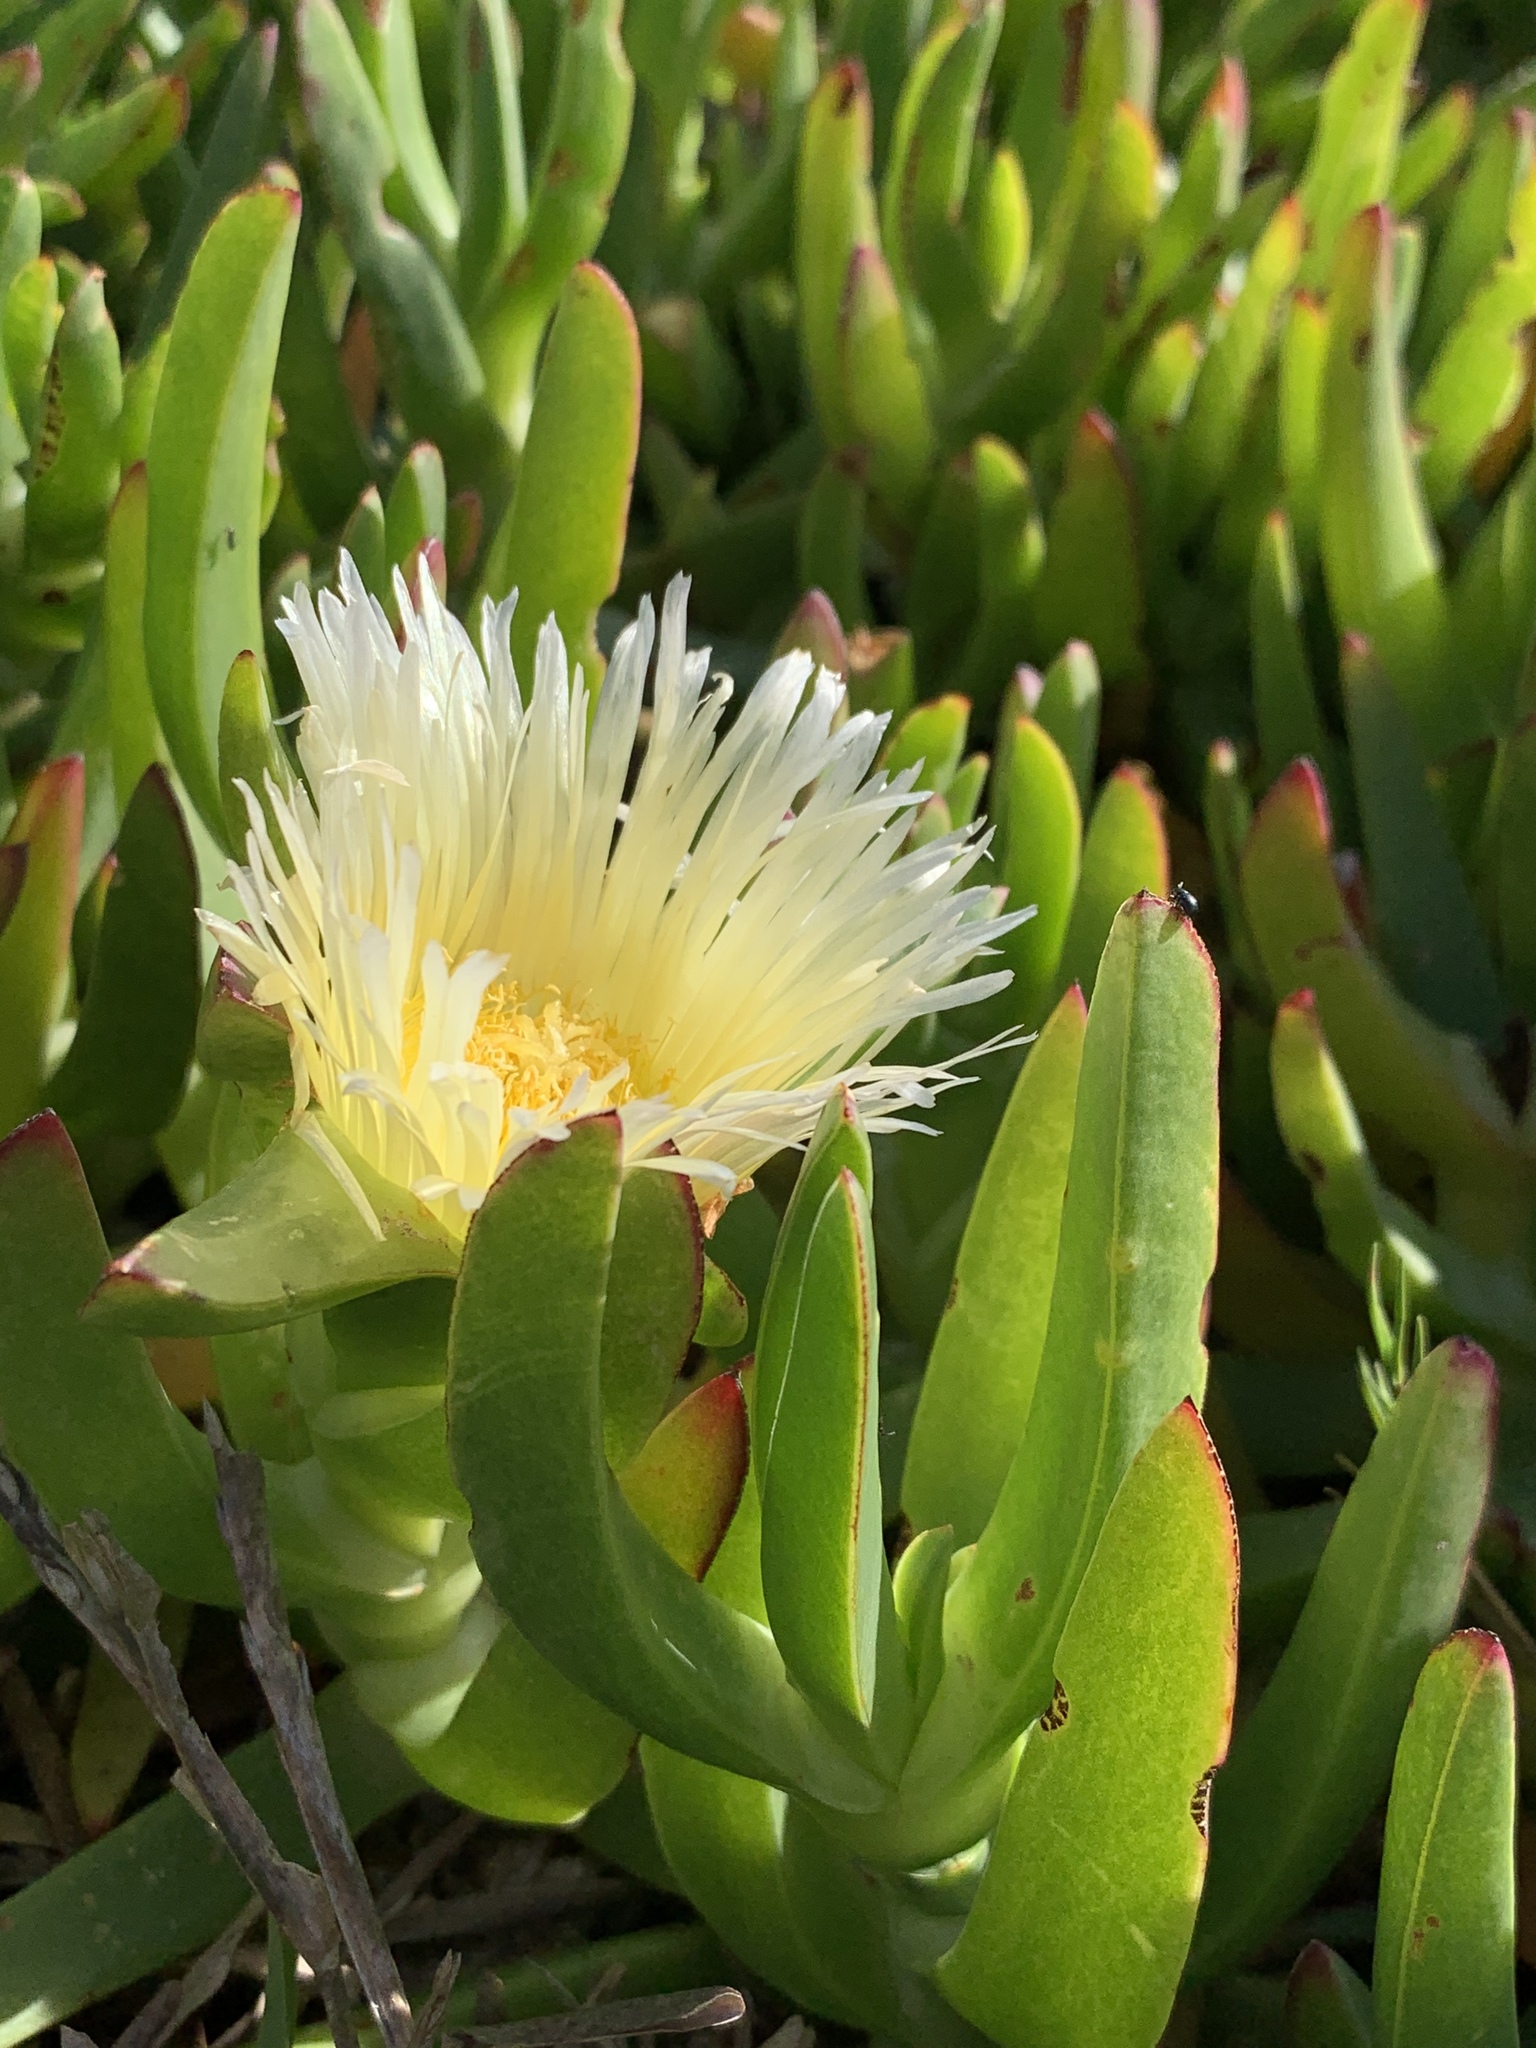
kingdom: Plantae
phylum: Tracheophyta
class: Magnoliopsida
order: Caryophyllales
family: Aizoaceae
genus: Carpobrotus
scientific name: Carpobrotus edulis
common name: Hottentot-fig
